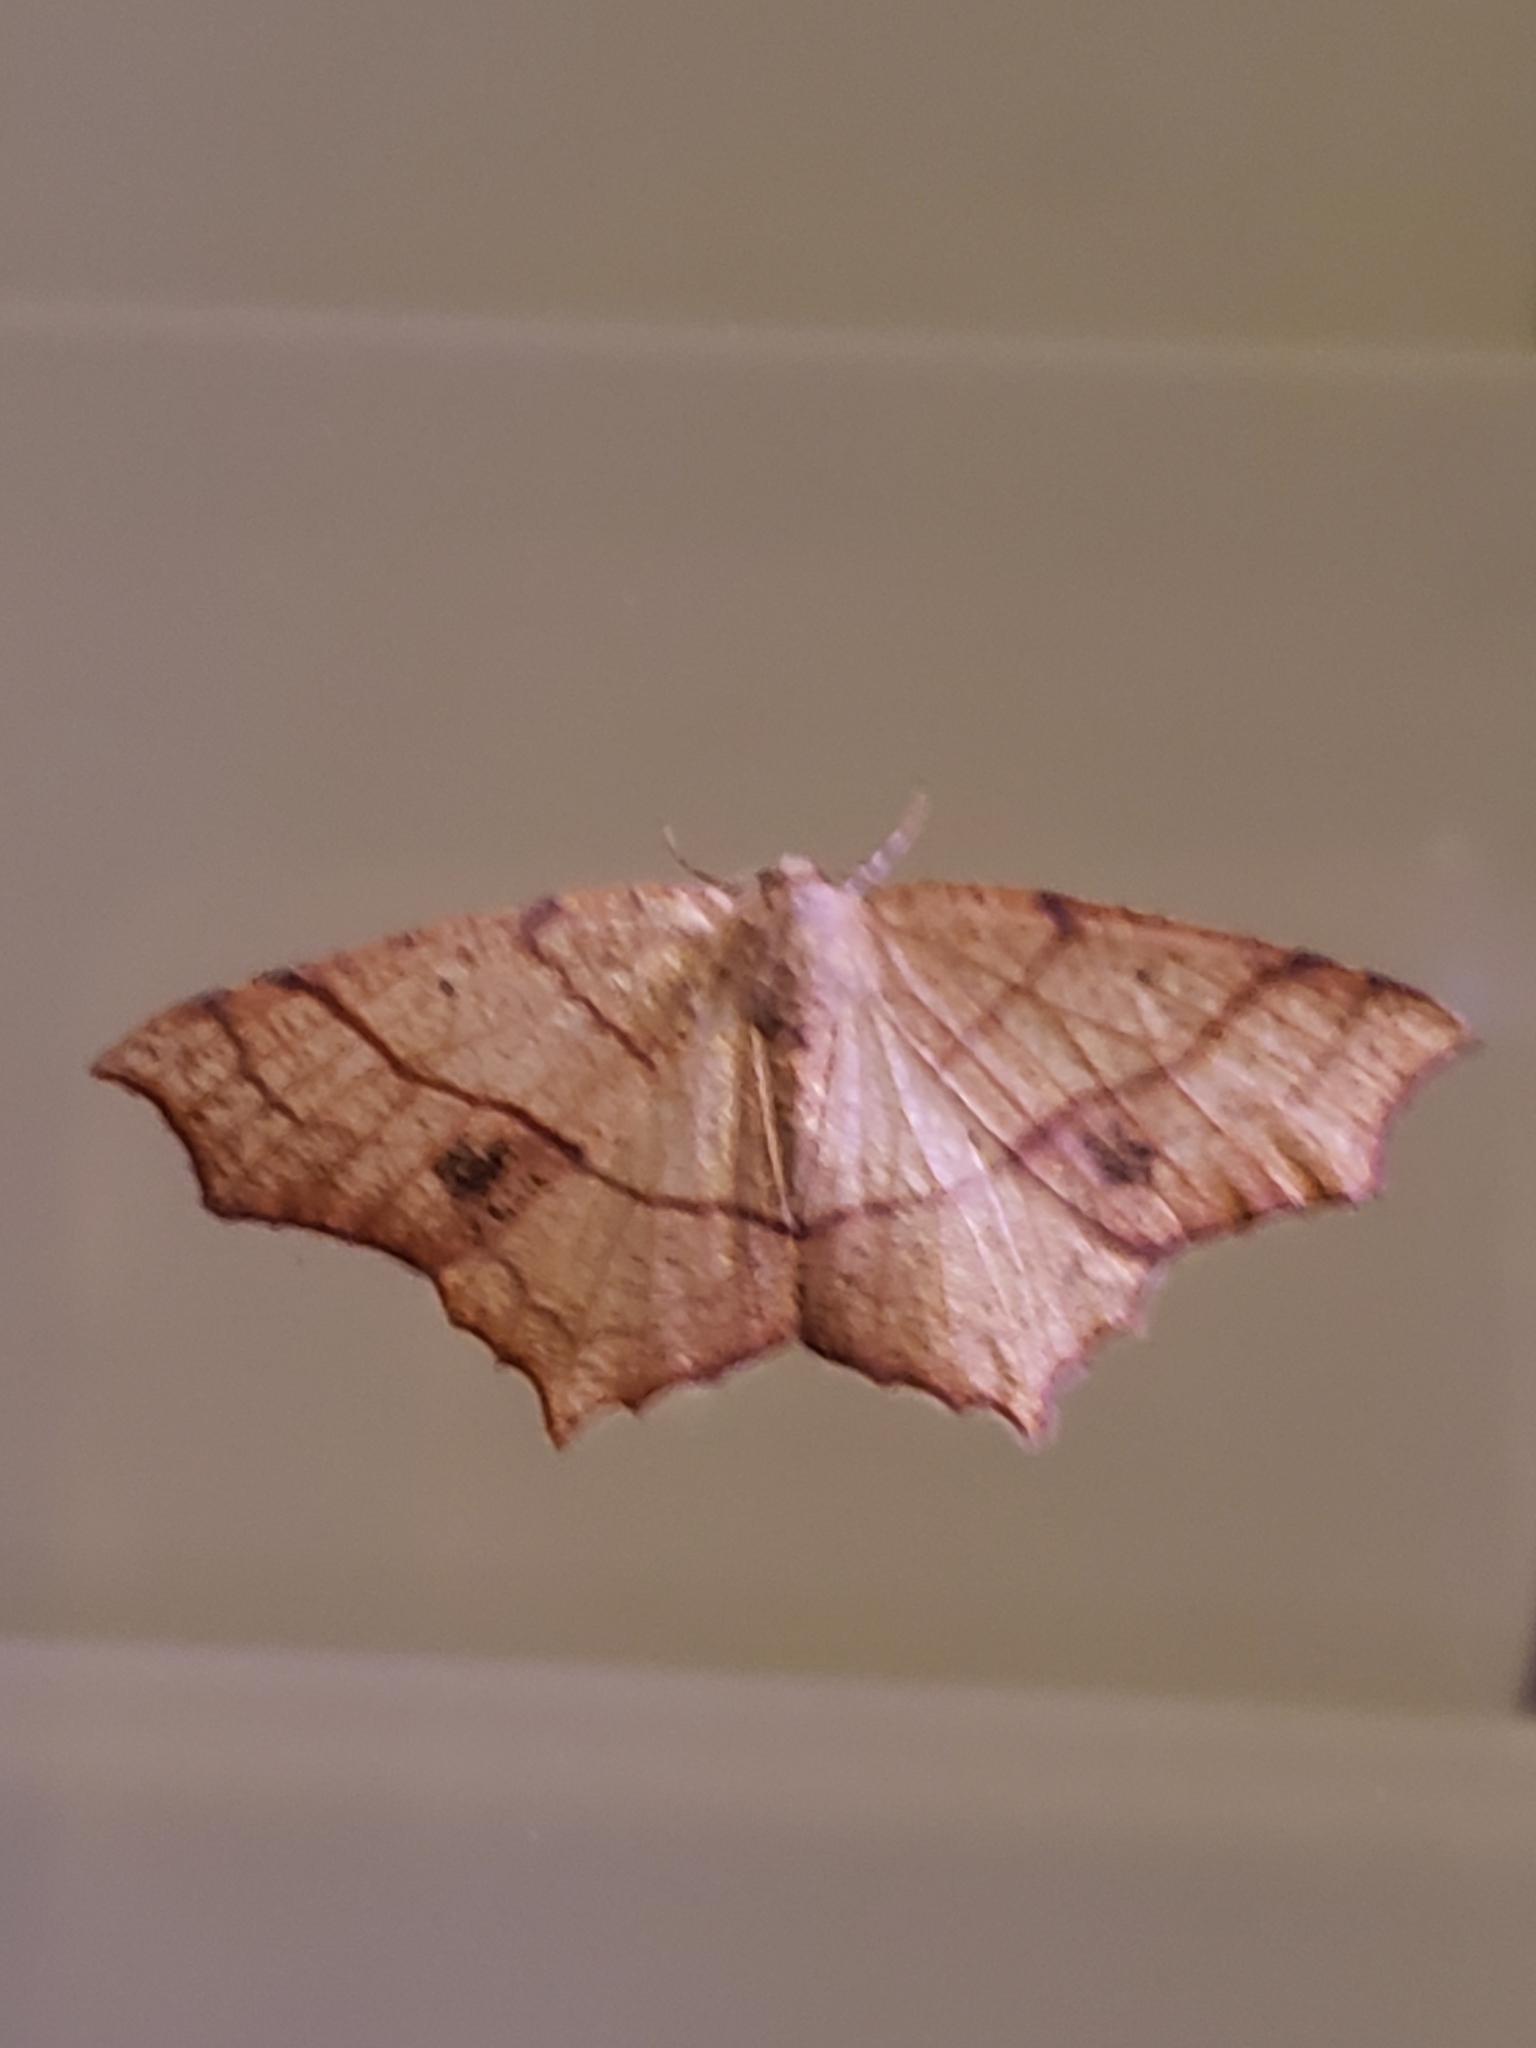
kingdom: Animalia
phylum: Arthropoda
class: Insecta
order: Lepidoptera
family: Geometridae
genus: Besma
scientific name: Besma quercivoraria
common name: Oak besma
